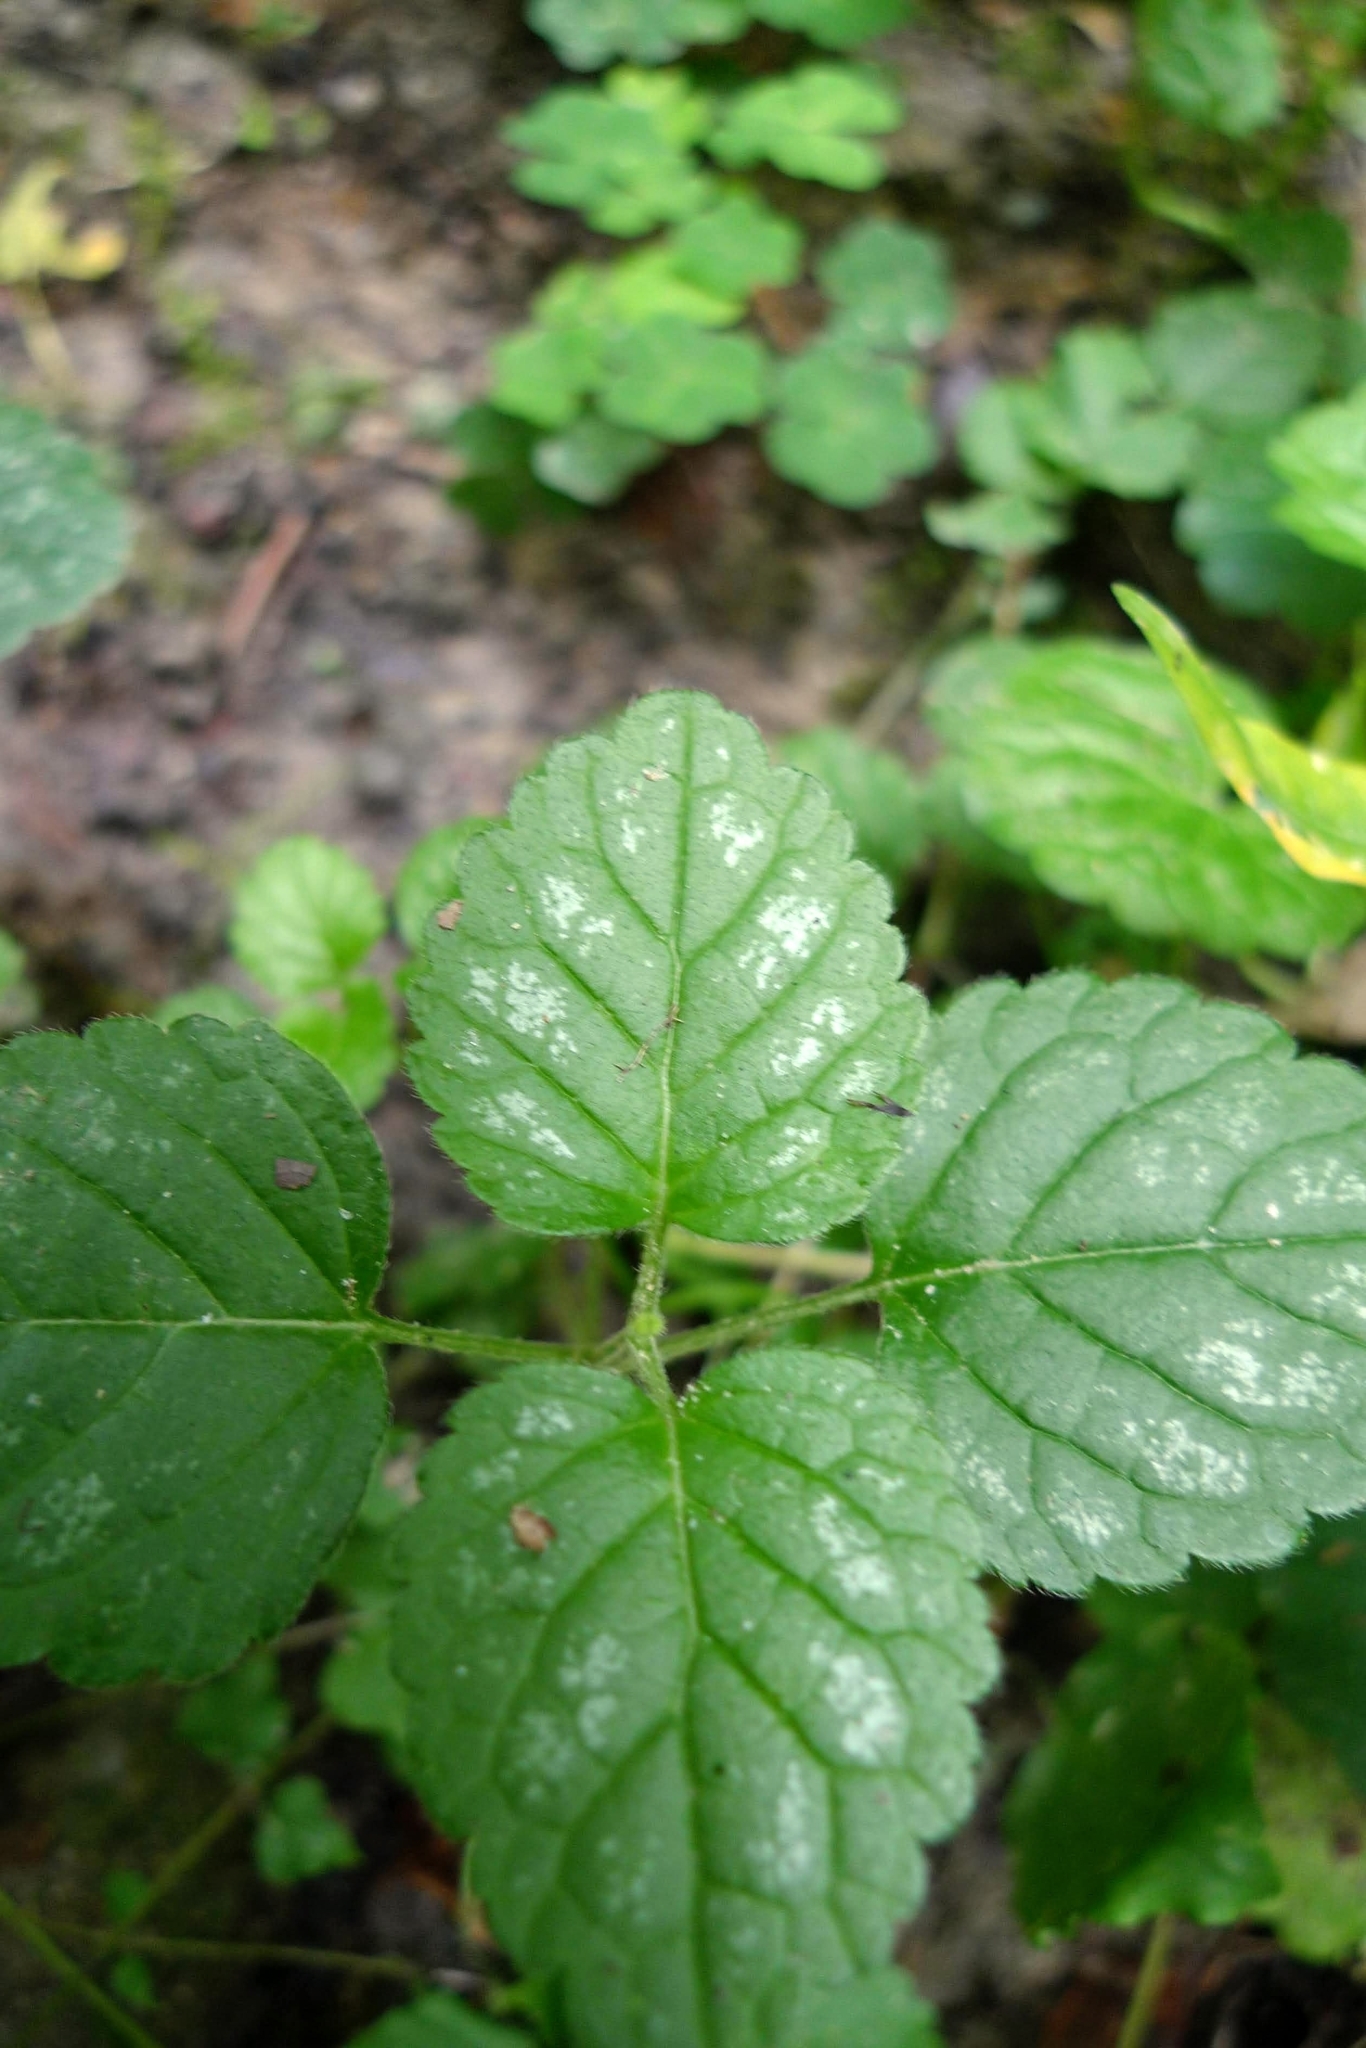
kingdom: Plantae
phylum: Tracheophyta
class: Magnoliopsida
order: Lamiales
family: Lamiaceae
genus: Lamium
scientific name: Lamium galeobdolon
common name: Yellow archangel
